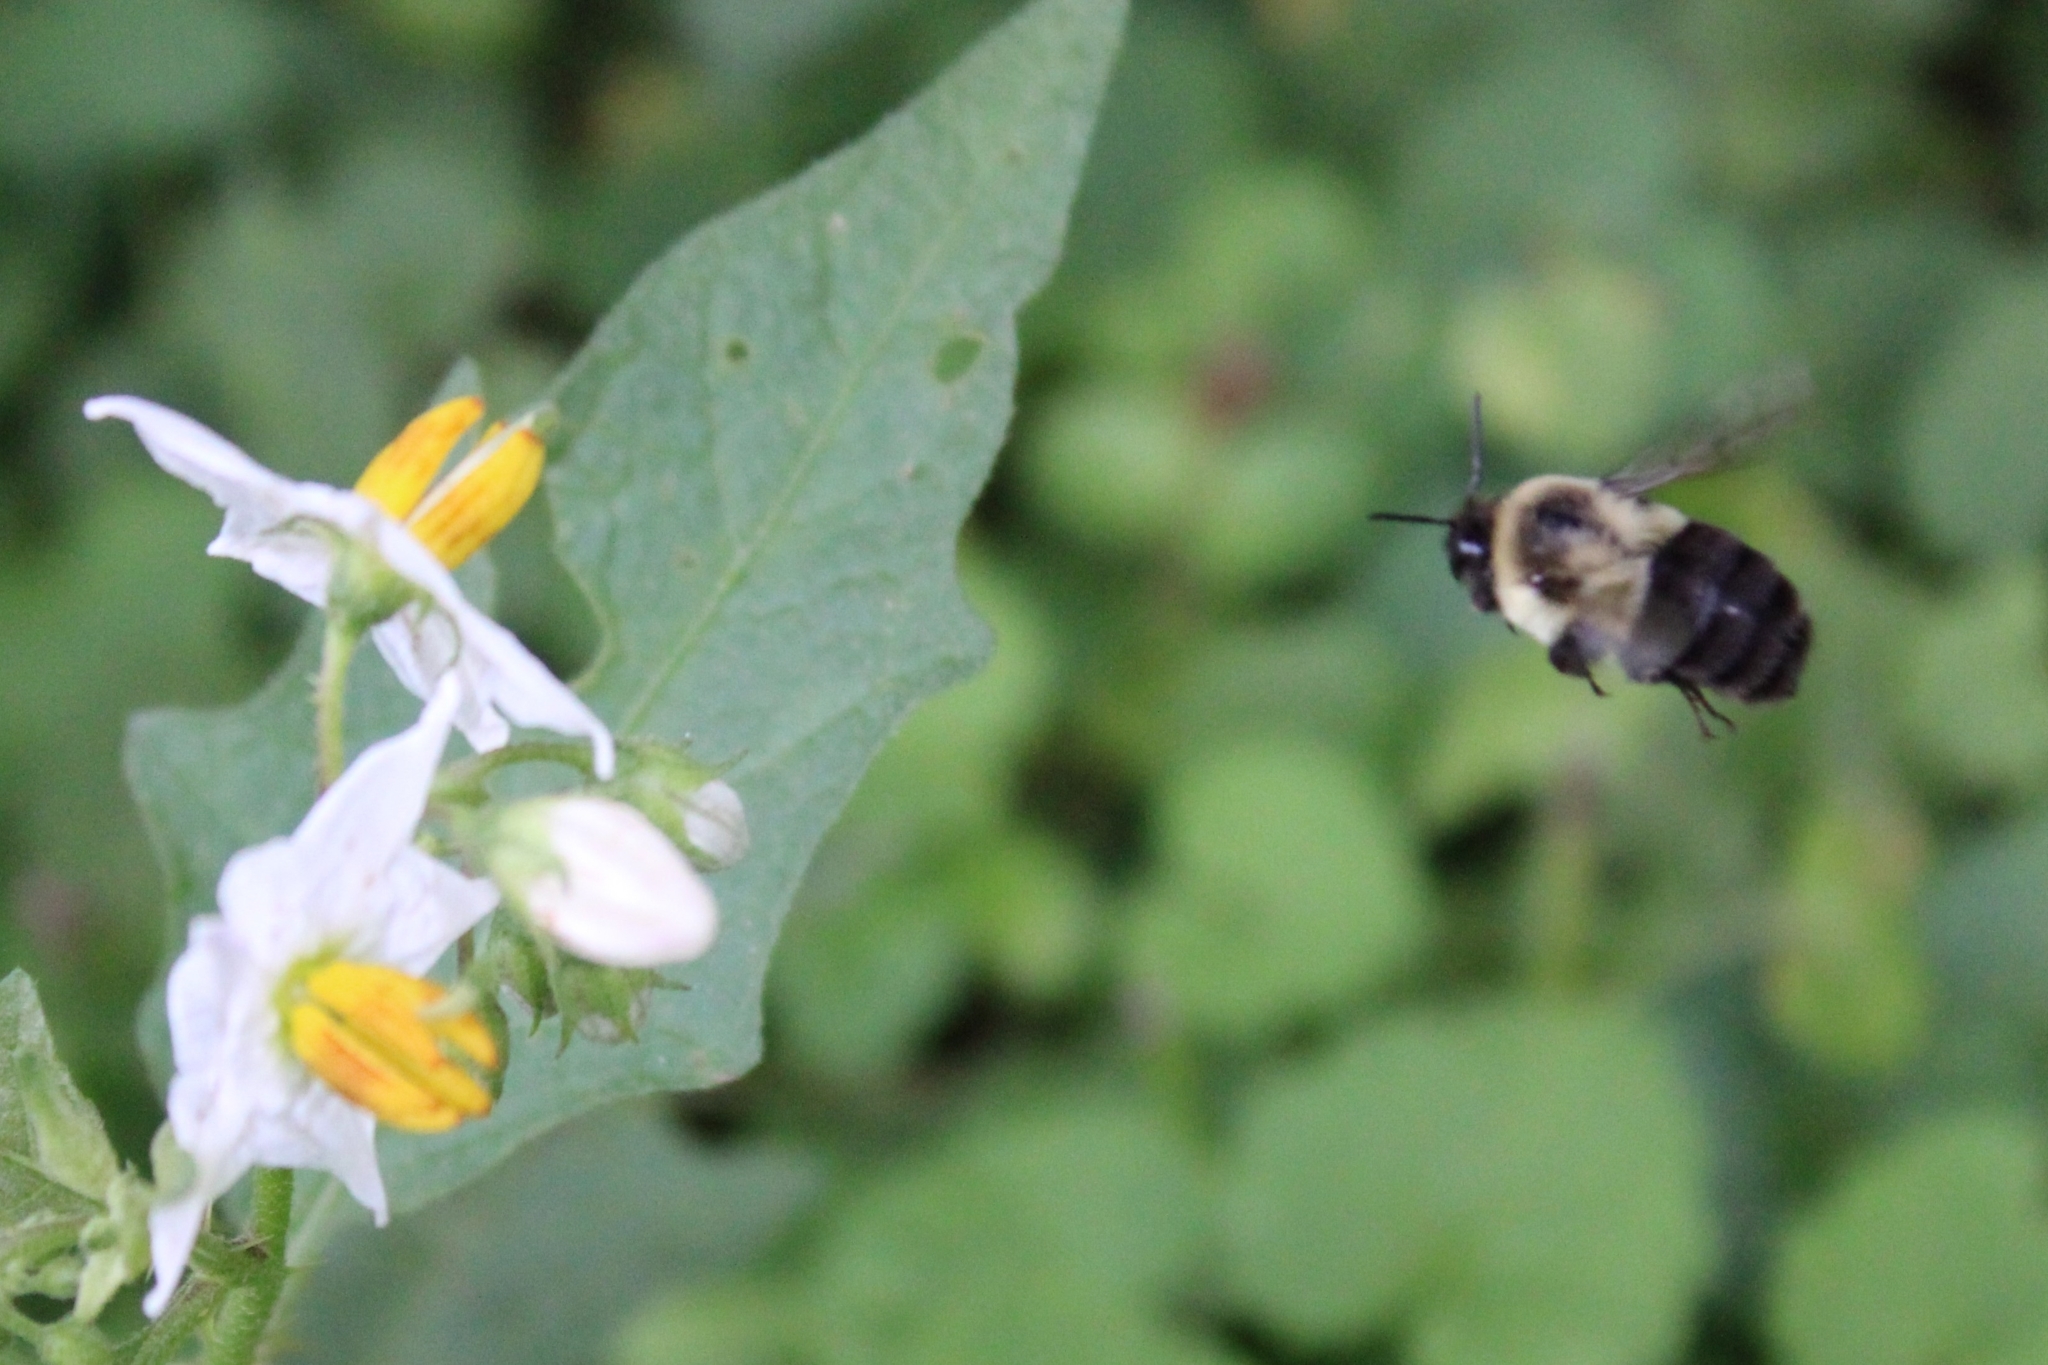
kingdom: Animalia
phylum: Arthropoda
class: Insecta
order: Hymenoptera
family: Apidae
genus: Bombus
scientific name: Bombus impatiens
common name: Common eastern bumble bee
